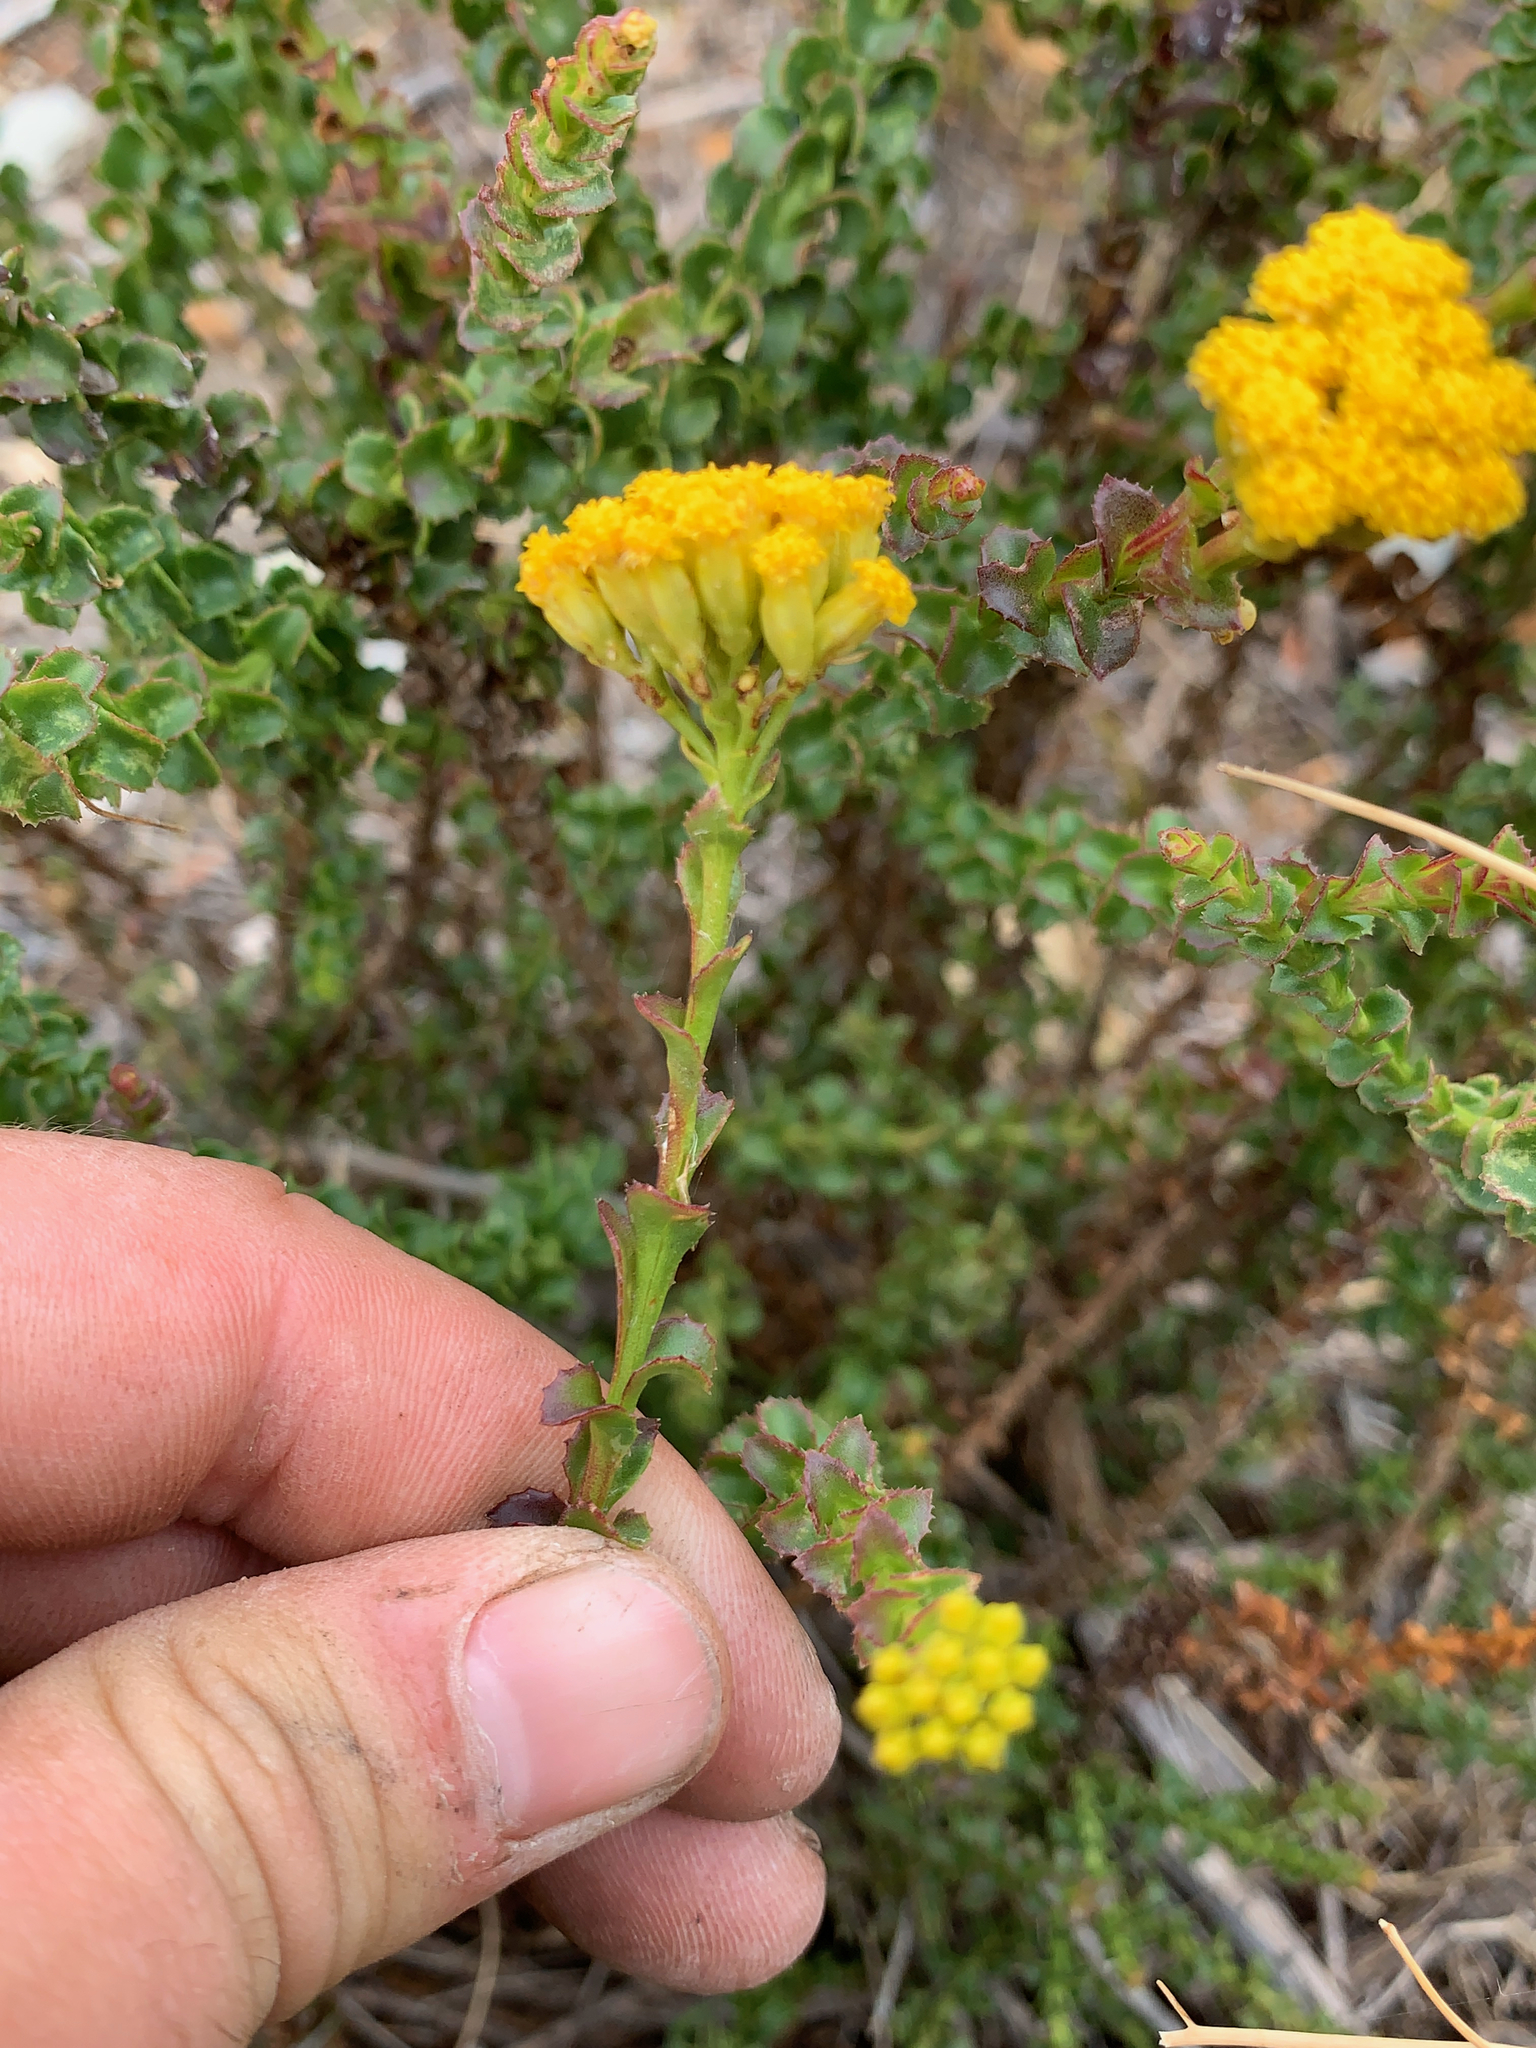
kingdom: Plantae
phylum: Tracheophyta
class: Magnoliopsida
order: Asterales
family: Asteraceae
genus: Athanasia
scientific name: Athanasia dentata
